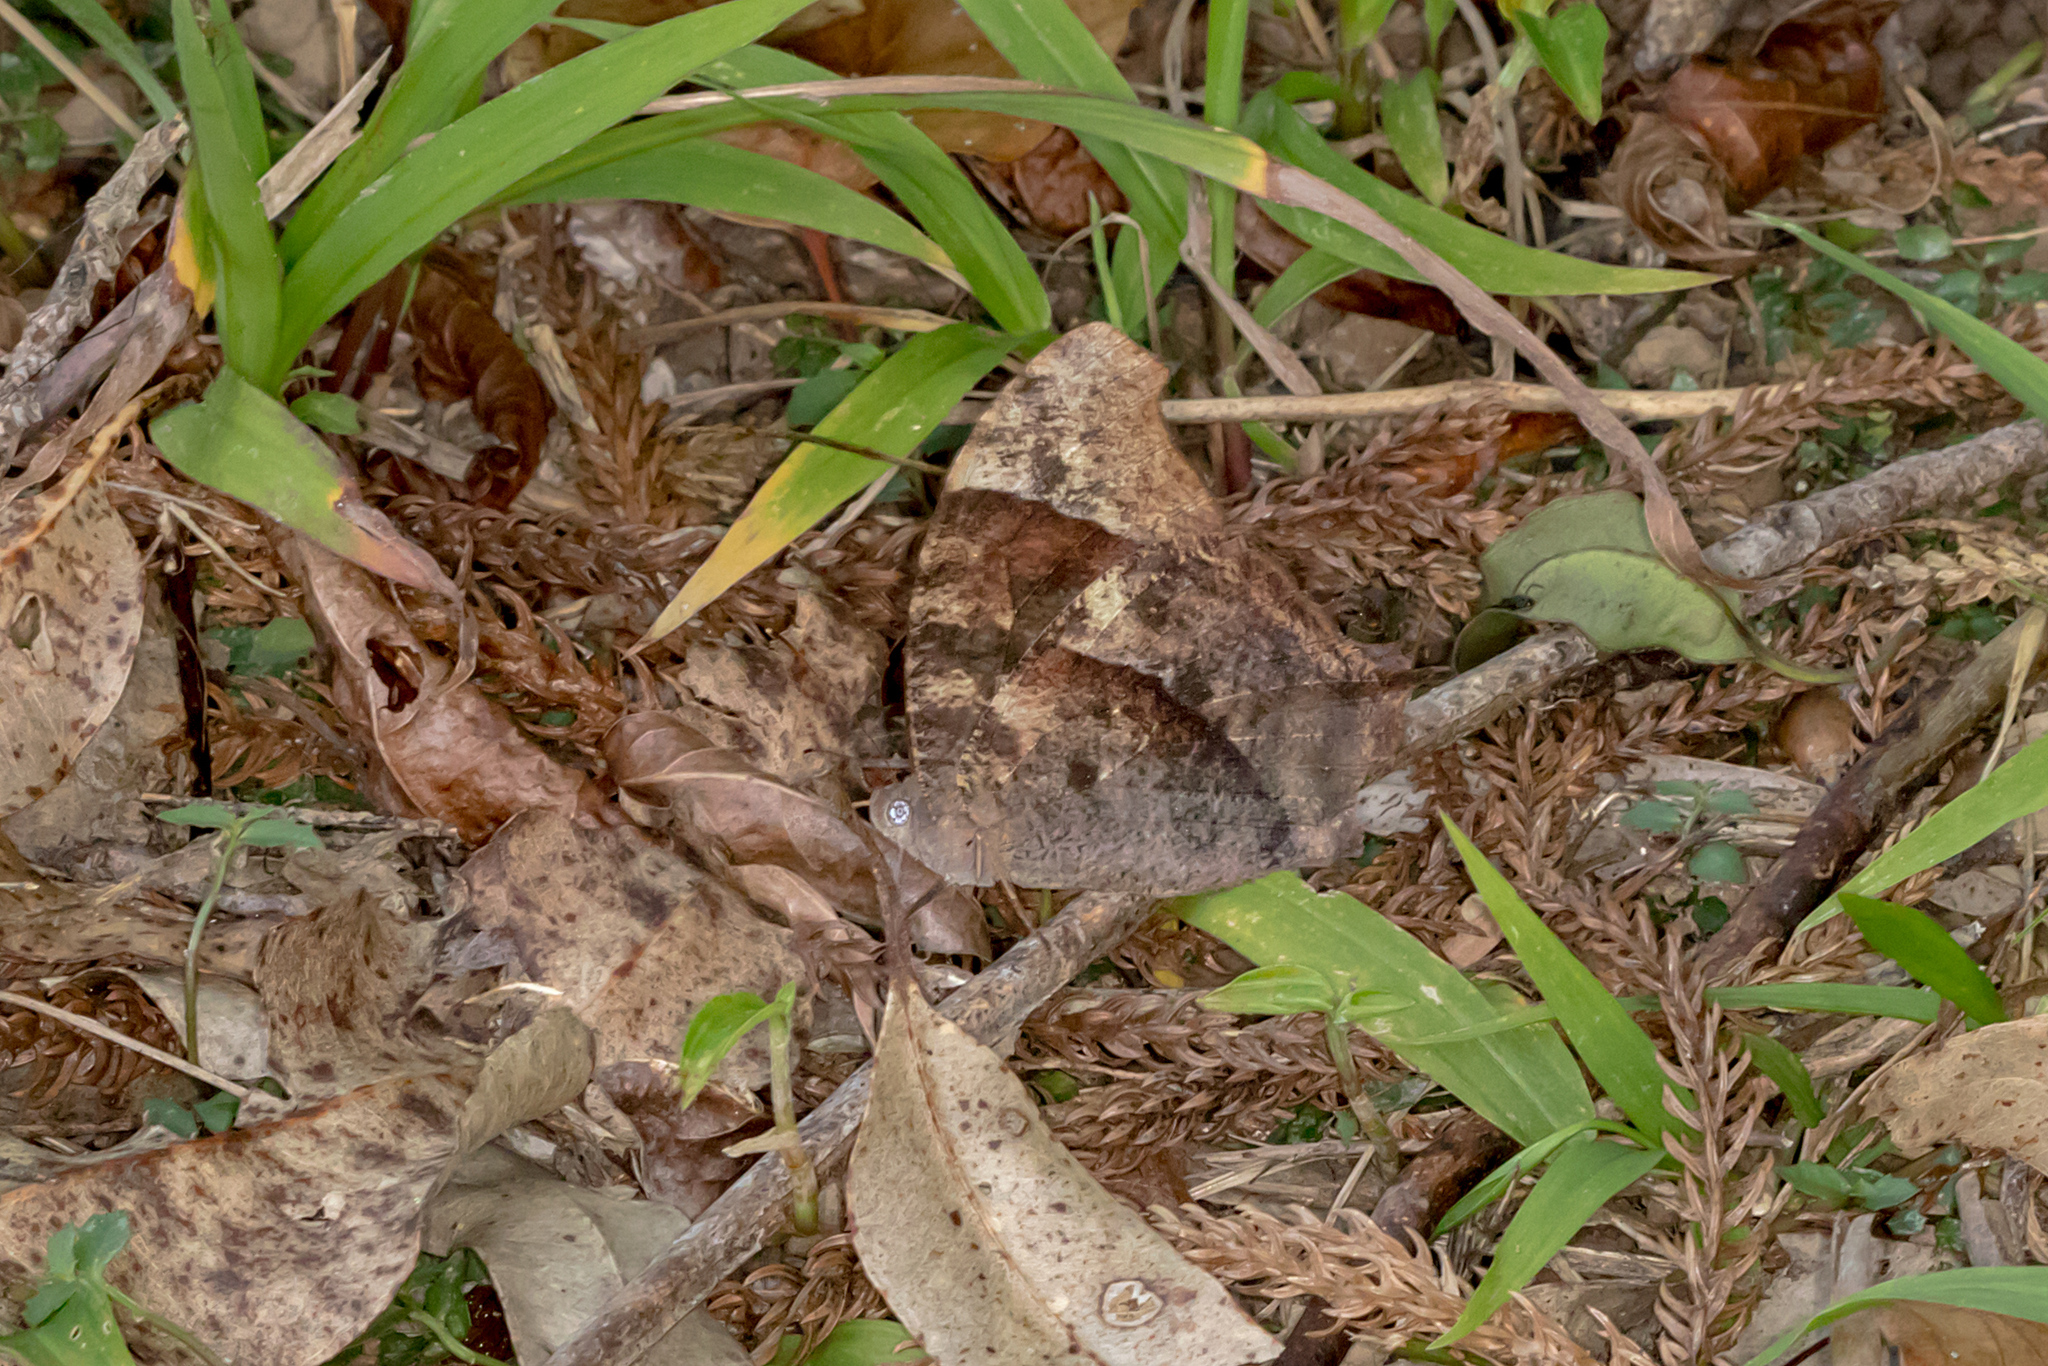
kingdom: Animalia
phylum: Arthropoda
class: Insecta
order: Lepidoptera
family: Nymphalidae
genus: Melanitis
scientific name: Melanitis leda
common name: Twilight brown
